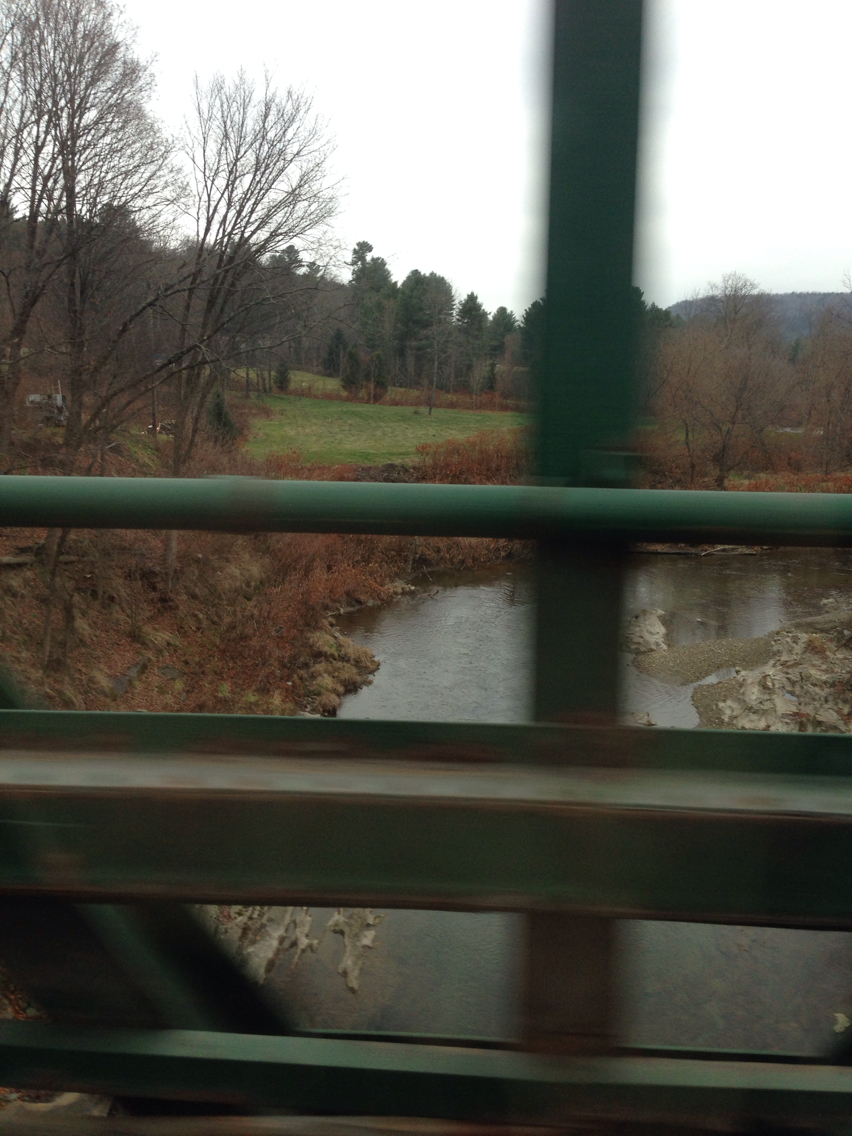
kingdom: Plantae
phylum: Tracheophyta
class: Magnoliopsida
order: Caryophyllales
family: Polygonaceae
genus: Reynoutria
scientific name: Reynoutria japonica
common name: Japanese knotweed
